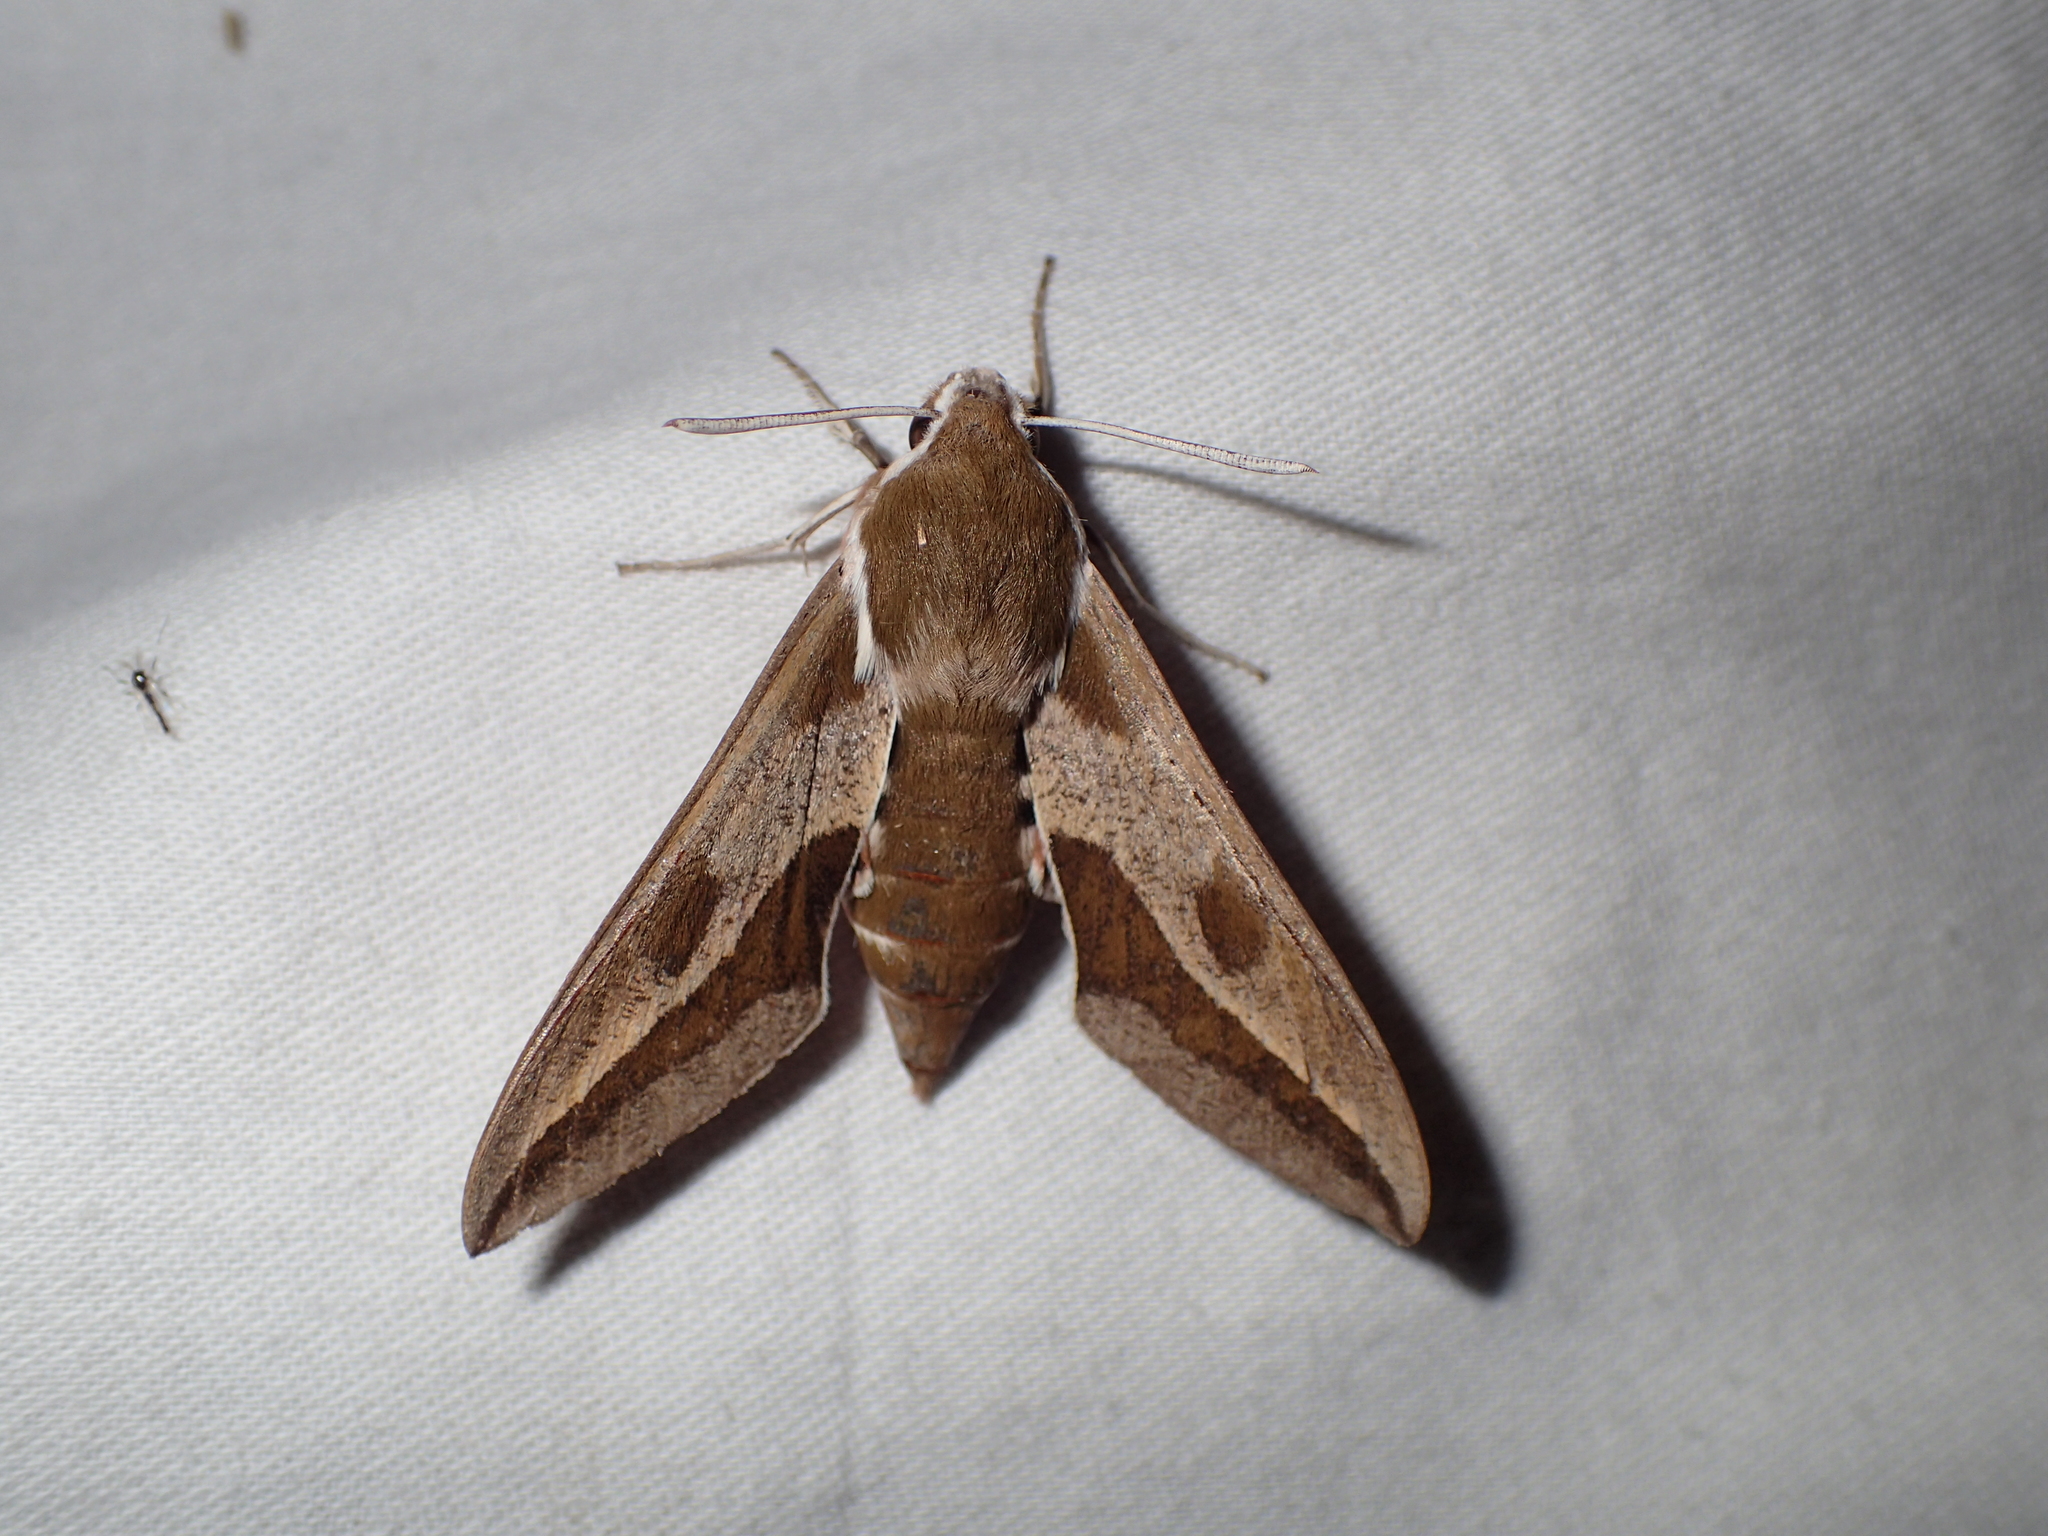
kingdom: Animalia
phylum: Arthropoda
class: Insecta
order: Lepidoptera
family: Sphingidae
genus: Hyles
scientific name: Hyles euphorbiae
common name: Spurge hawk-moth
